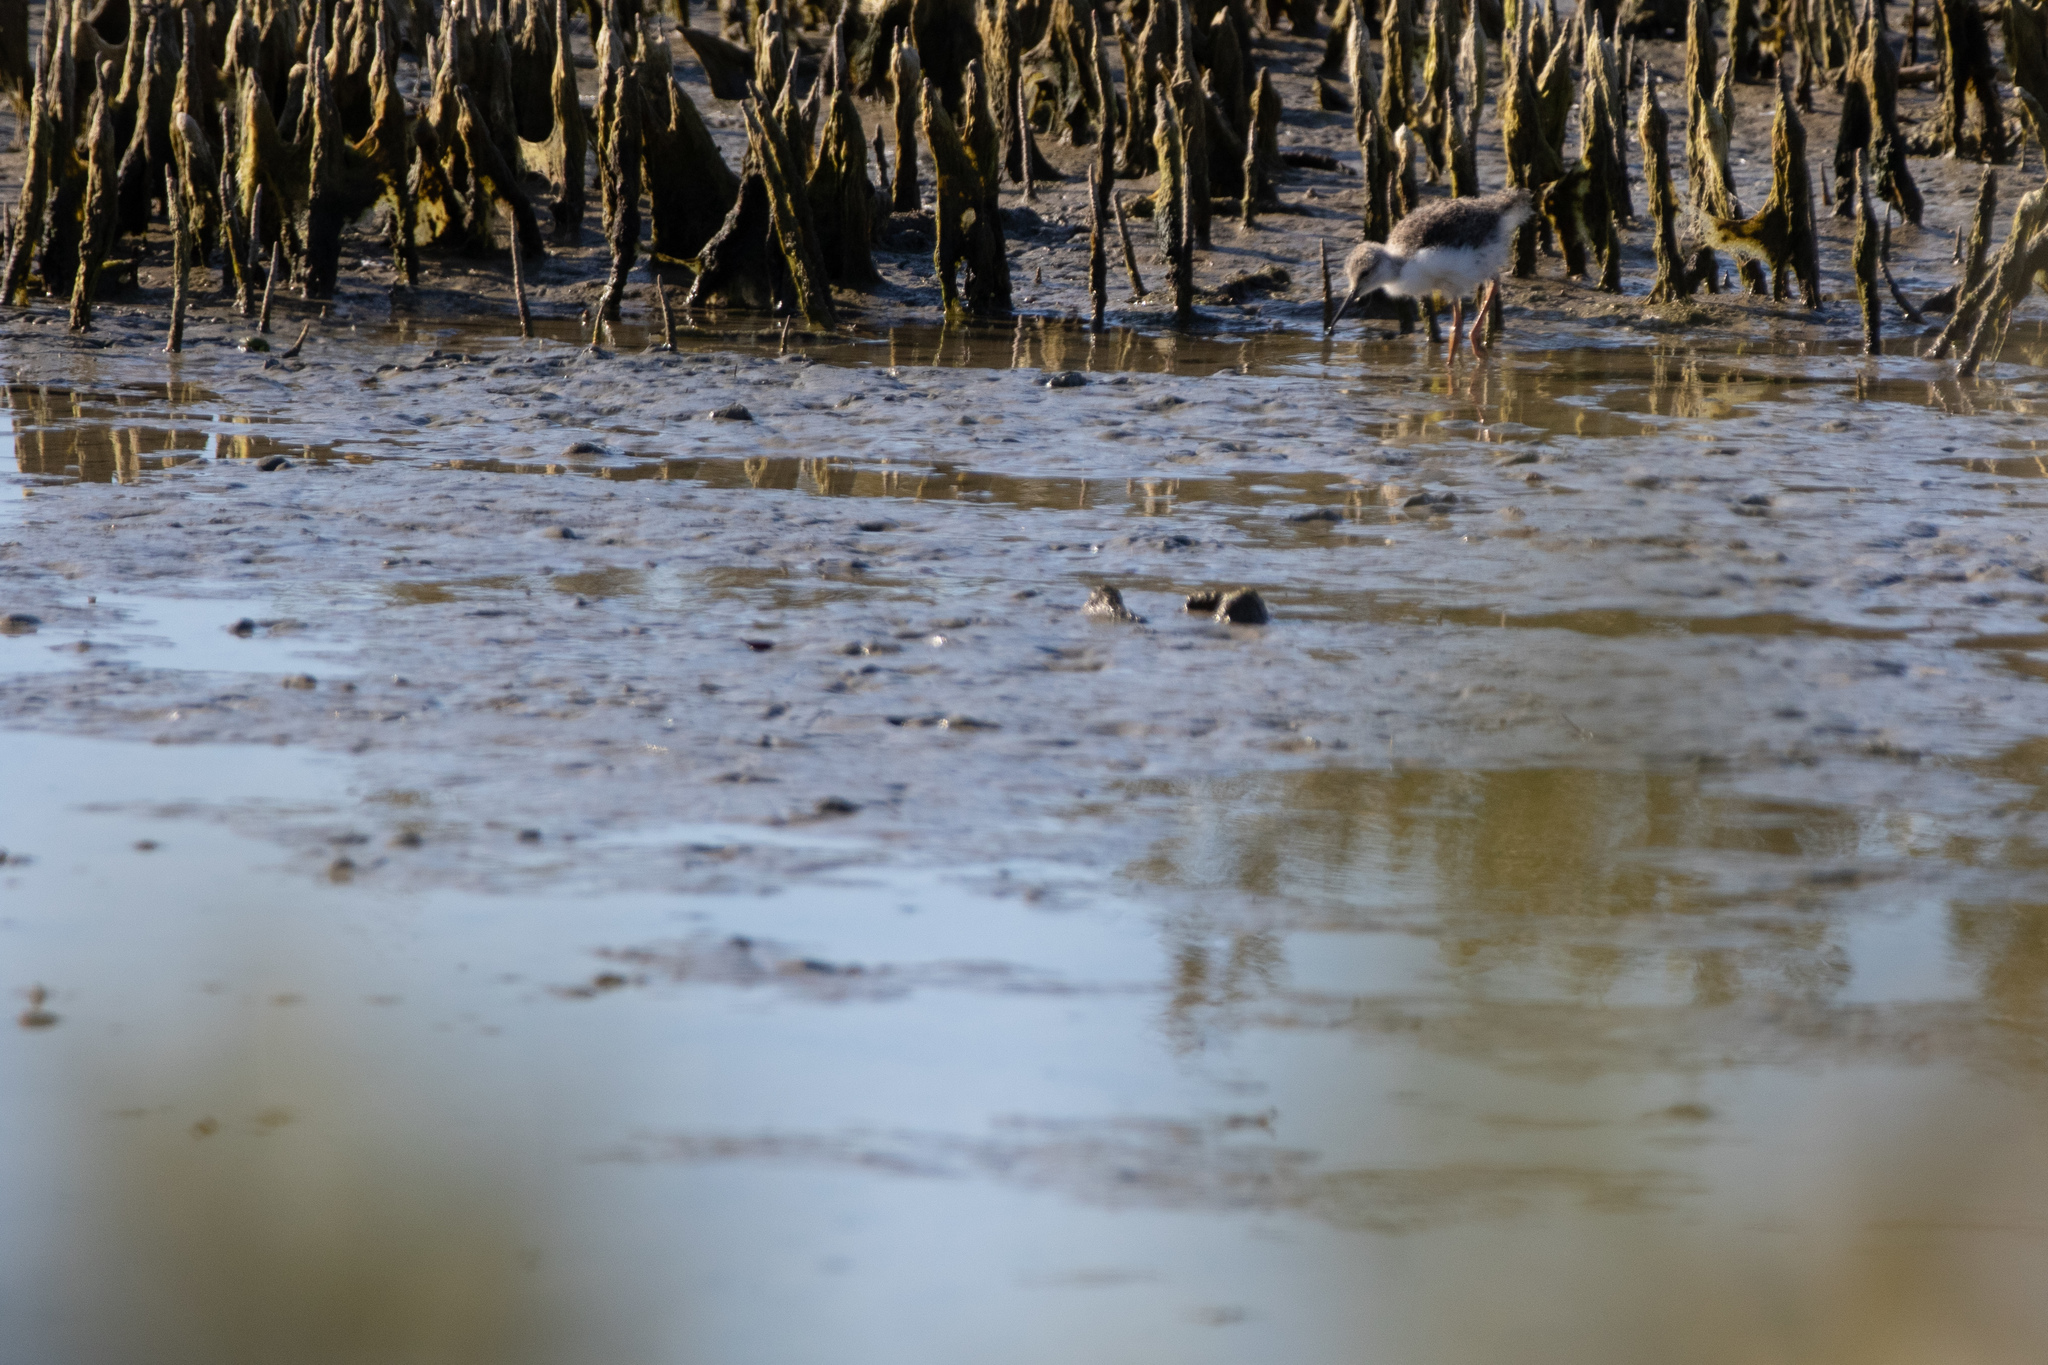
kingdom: Animalia
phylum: Chordata
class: Aves
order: Charadriiformes
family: Recurvirostridae
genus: Himantopus
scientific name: Himantopus leucocephalus
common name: White-headed stilt
